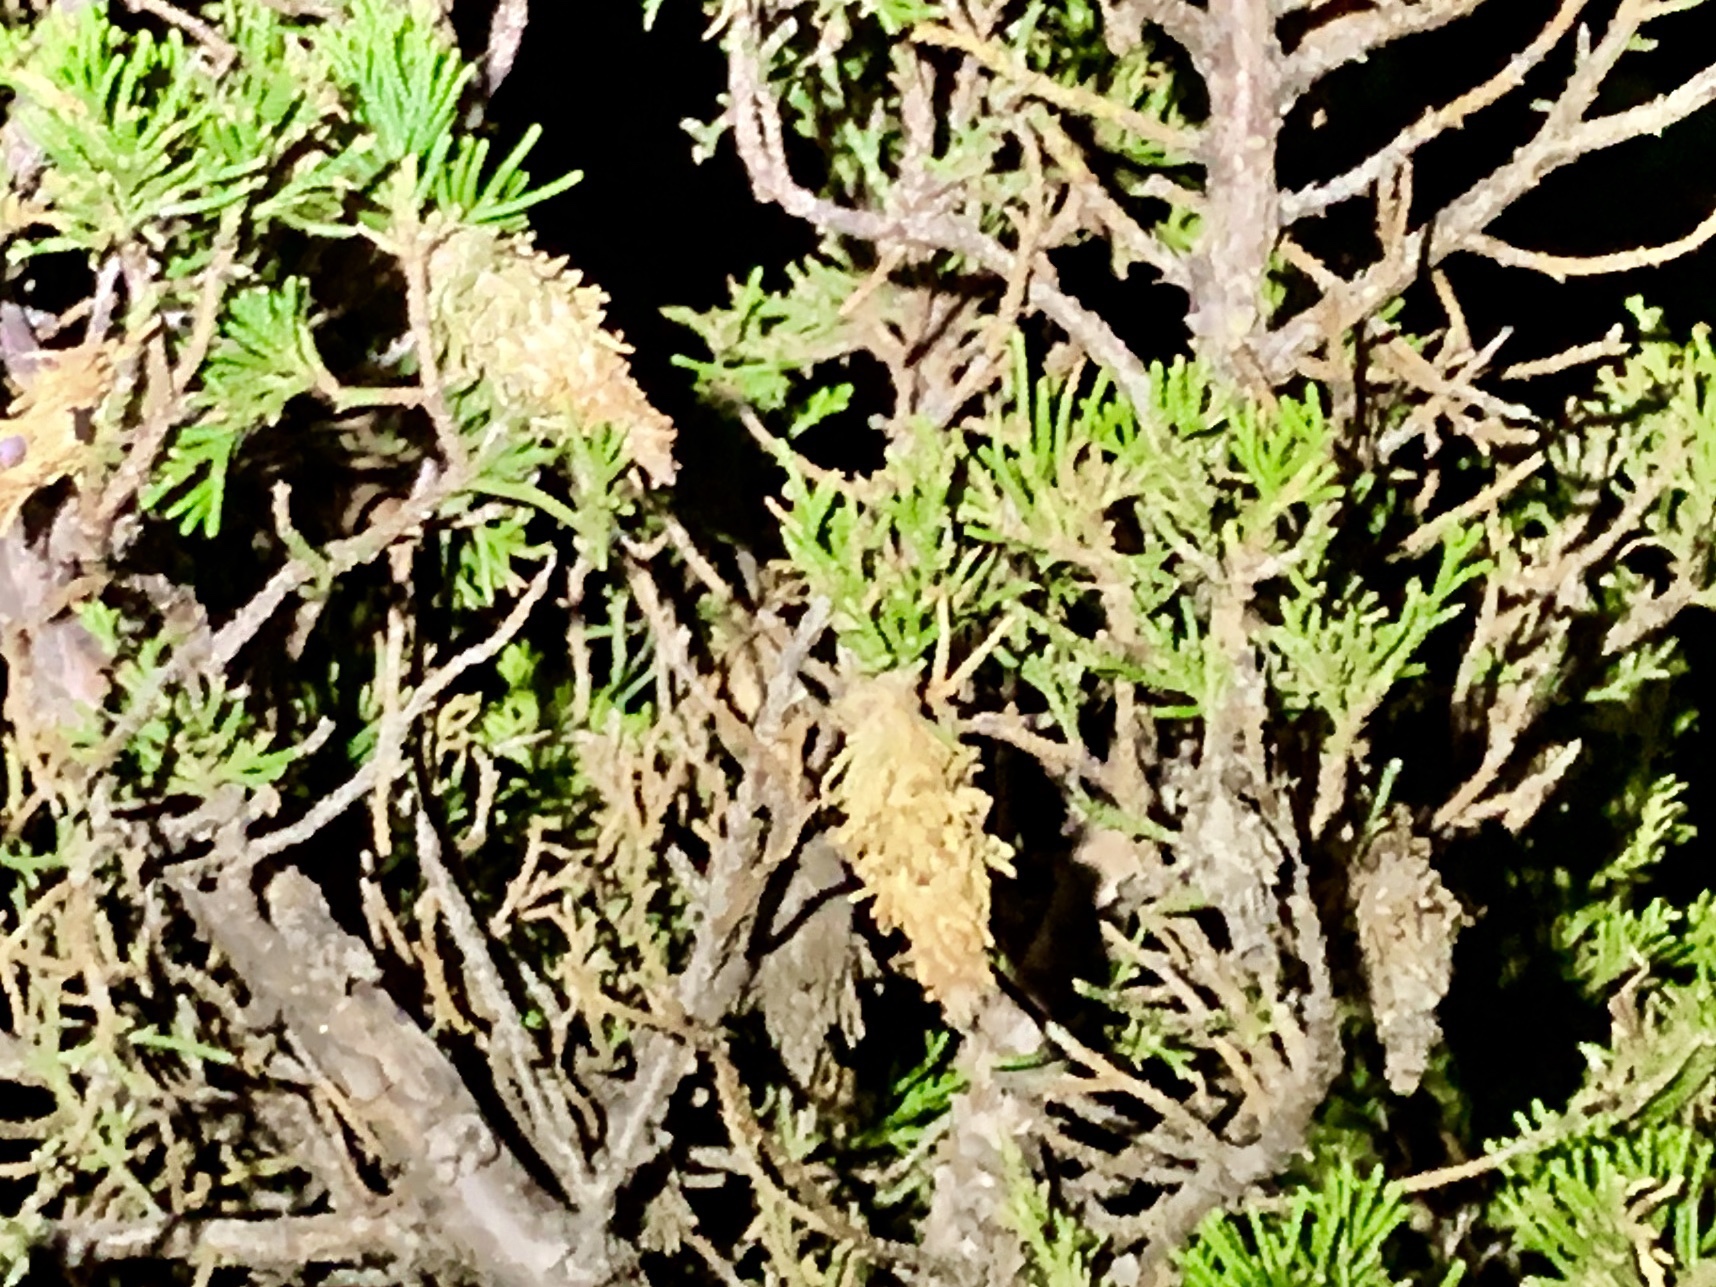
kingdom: Animalia
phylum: Arthropoda
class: Insecta
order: Lepidoptera
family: Psychidae
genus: Thyridopteryx
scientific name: Thyridopteryx ephemeraeformis
